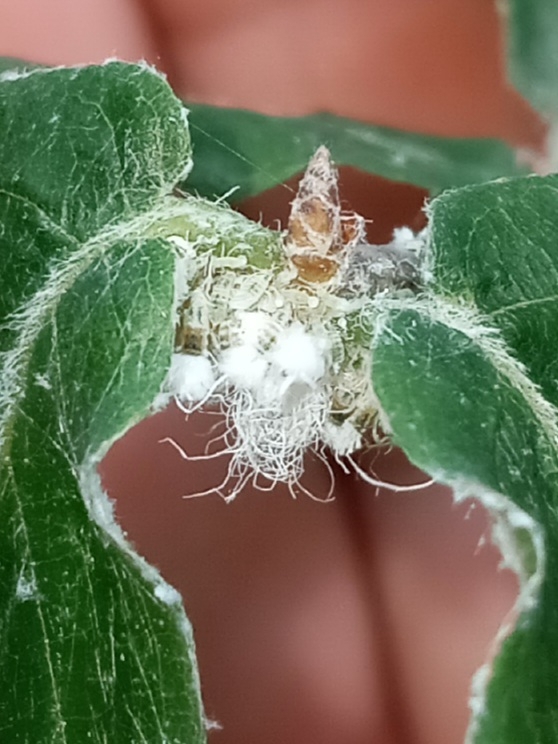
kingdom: Animalia
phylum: Arthropoda
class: Insecta
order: Hemiptera
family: Aphididae
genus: Grylloprociphilus
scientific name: Grylloprociphilus imbricator
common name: Beech blight aphid
